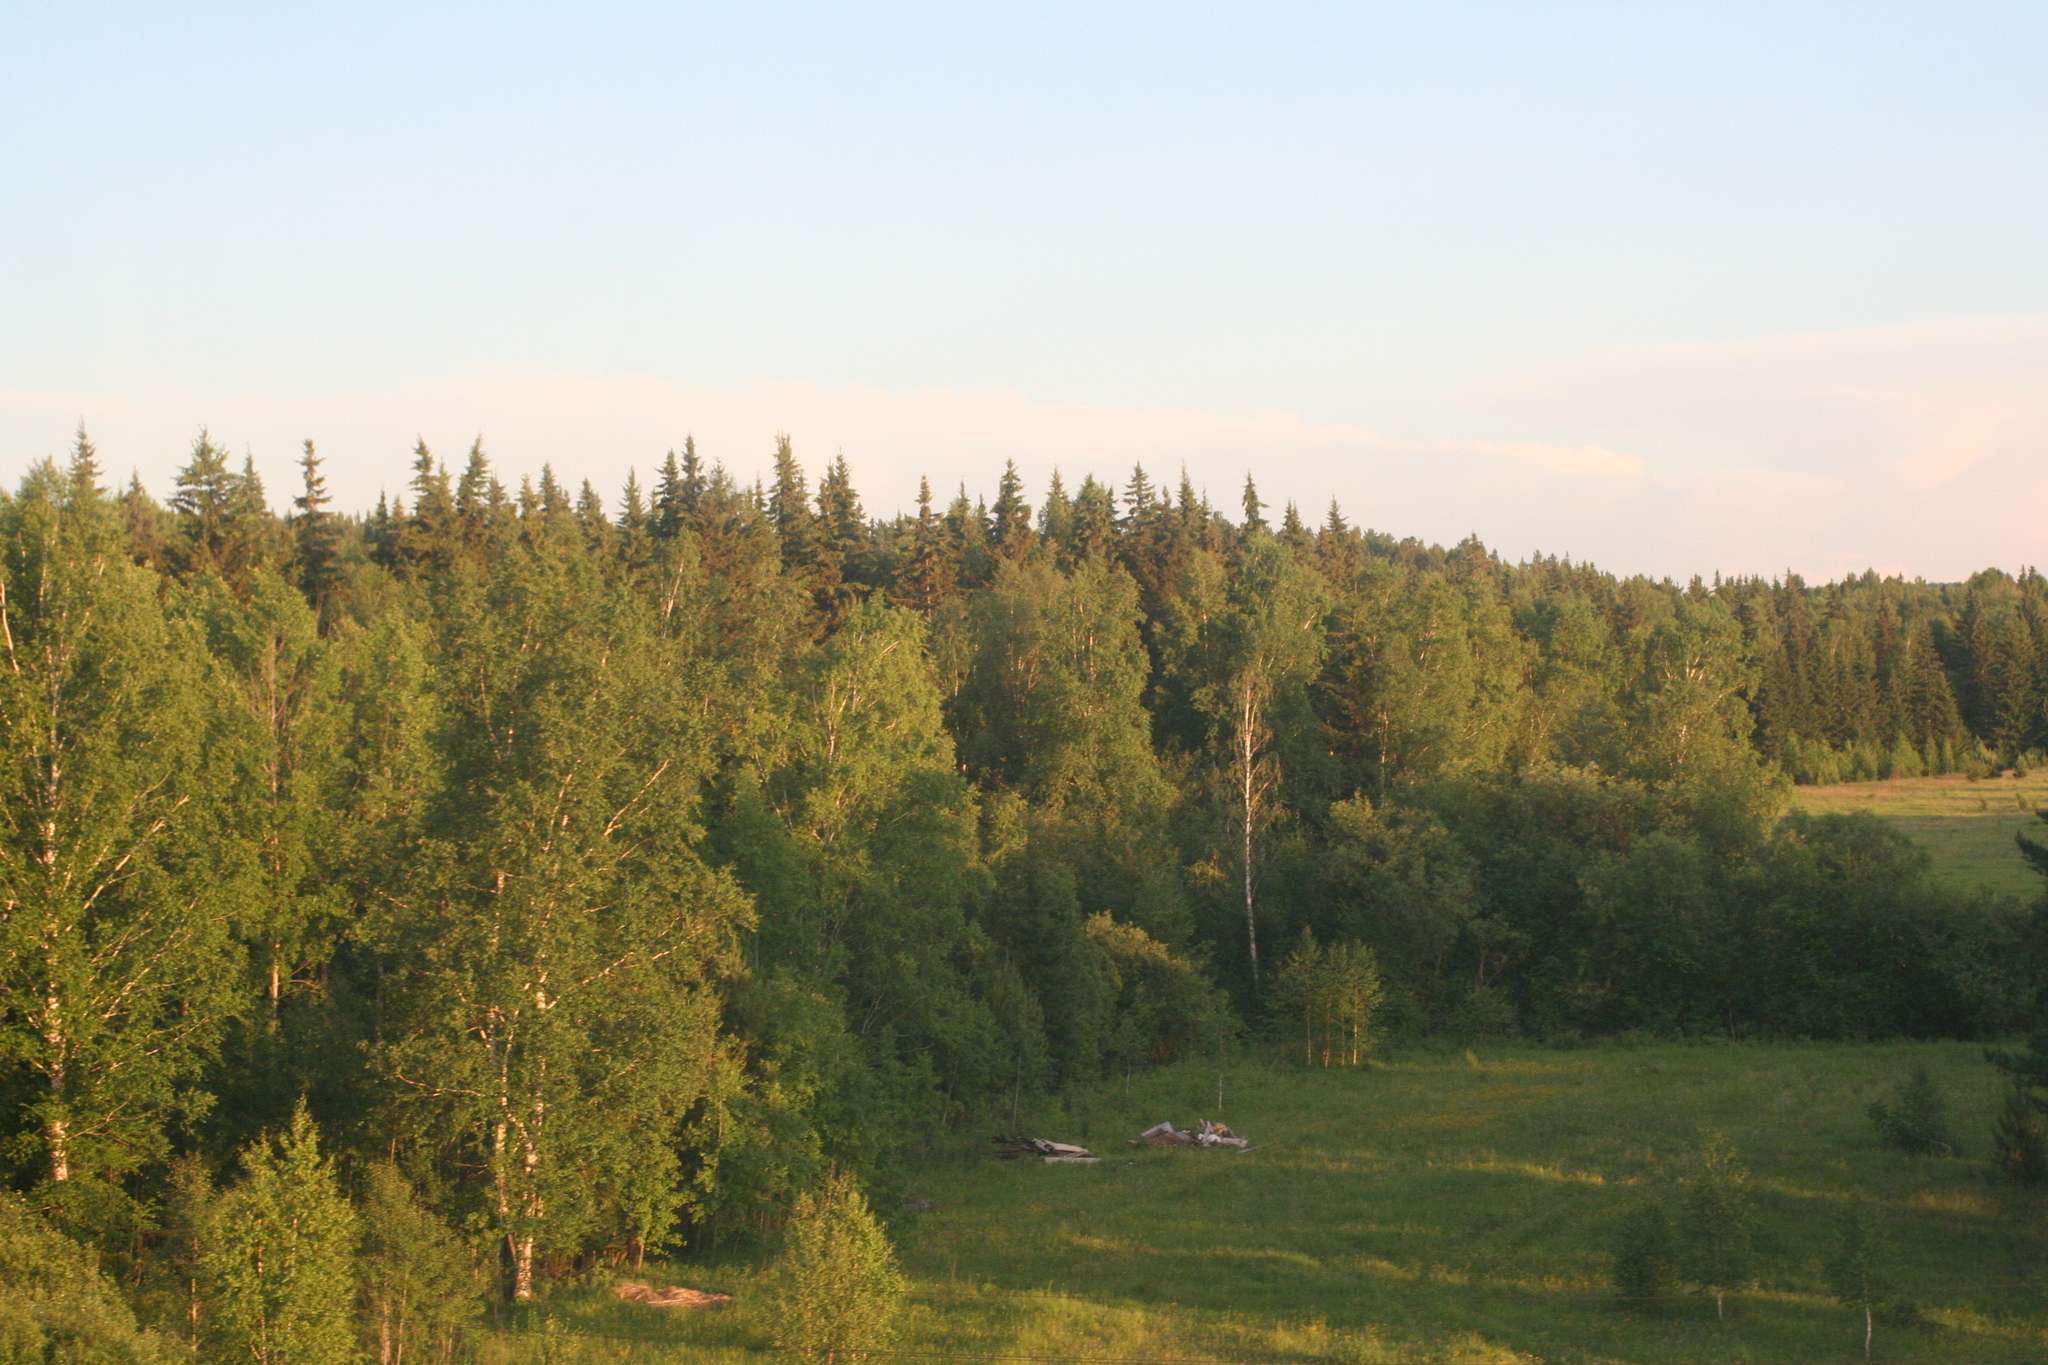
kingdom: Plantae
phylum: Tracheophyta
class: Magnoliopsida
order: Fagales
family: Betulaceae
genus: Betula
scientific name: Betula pendula
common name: Silver birch
